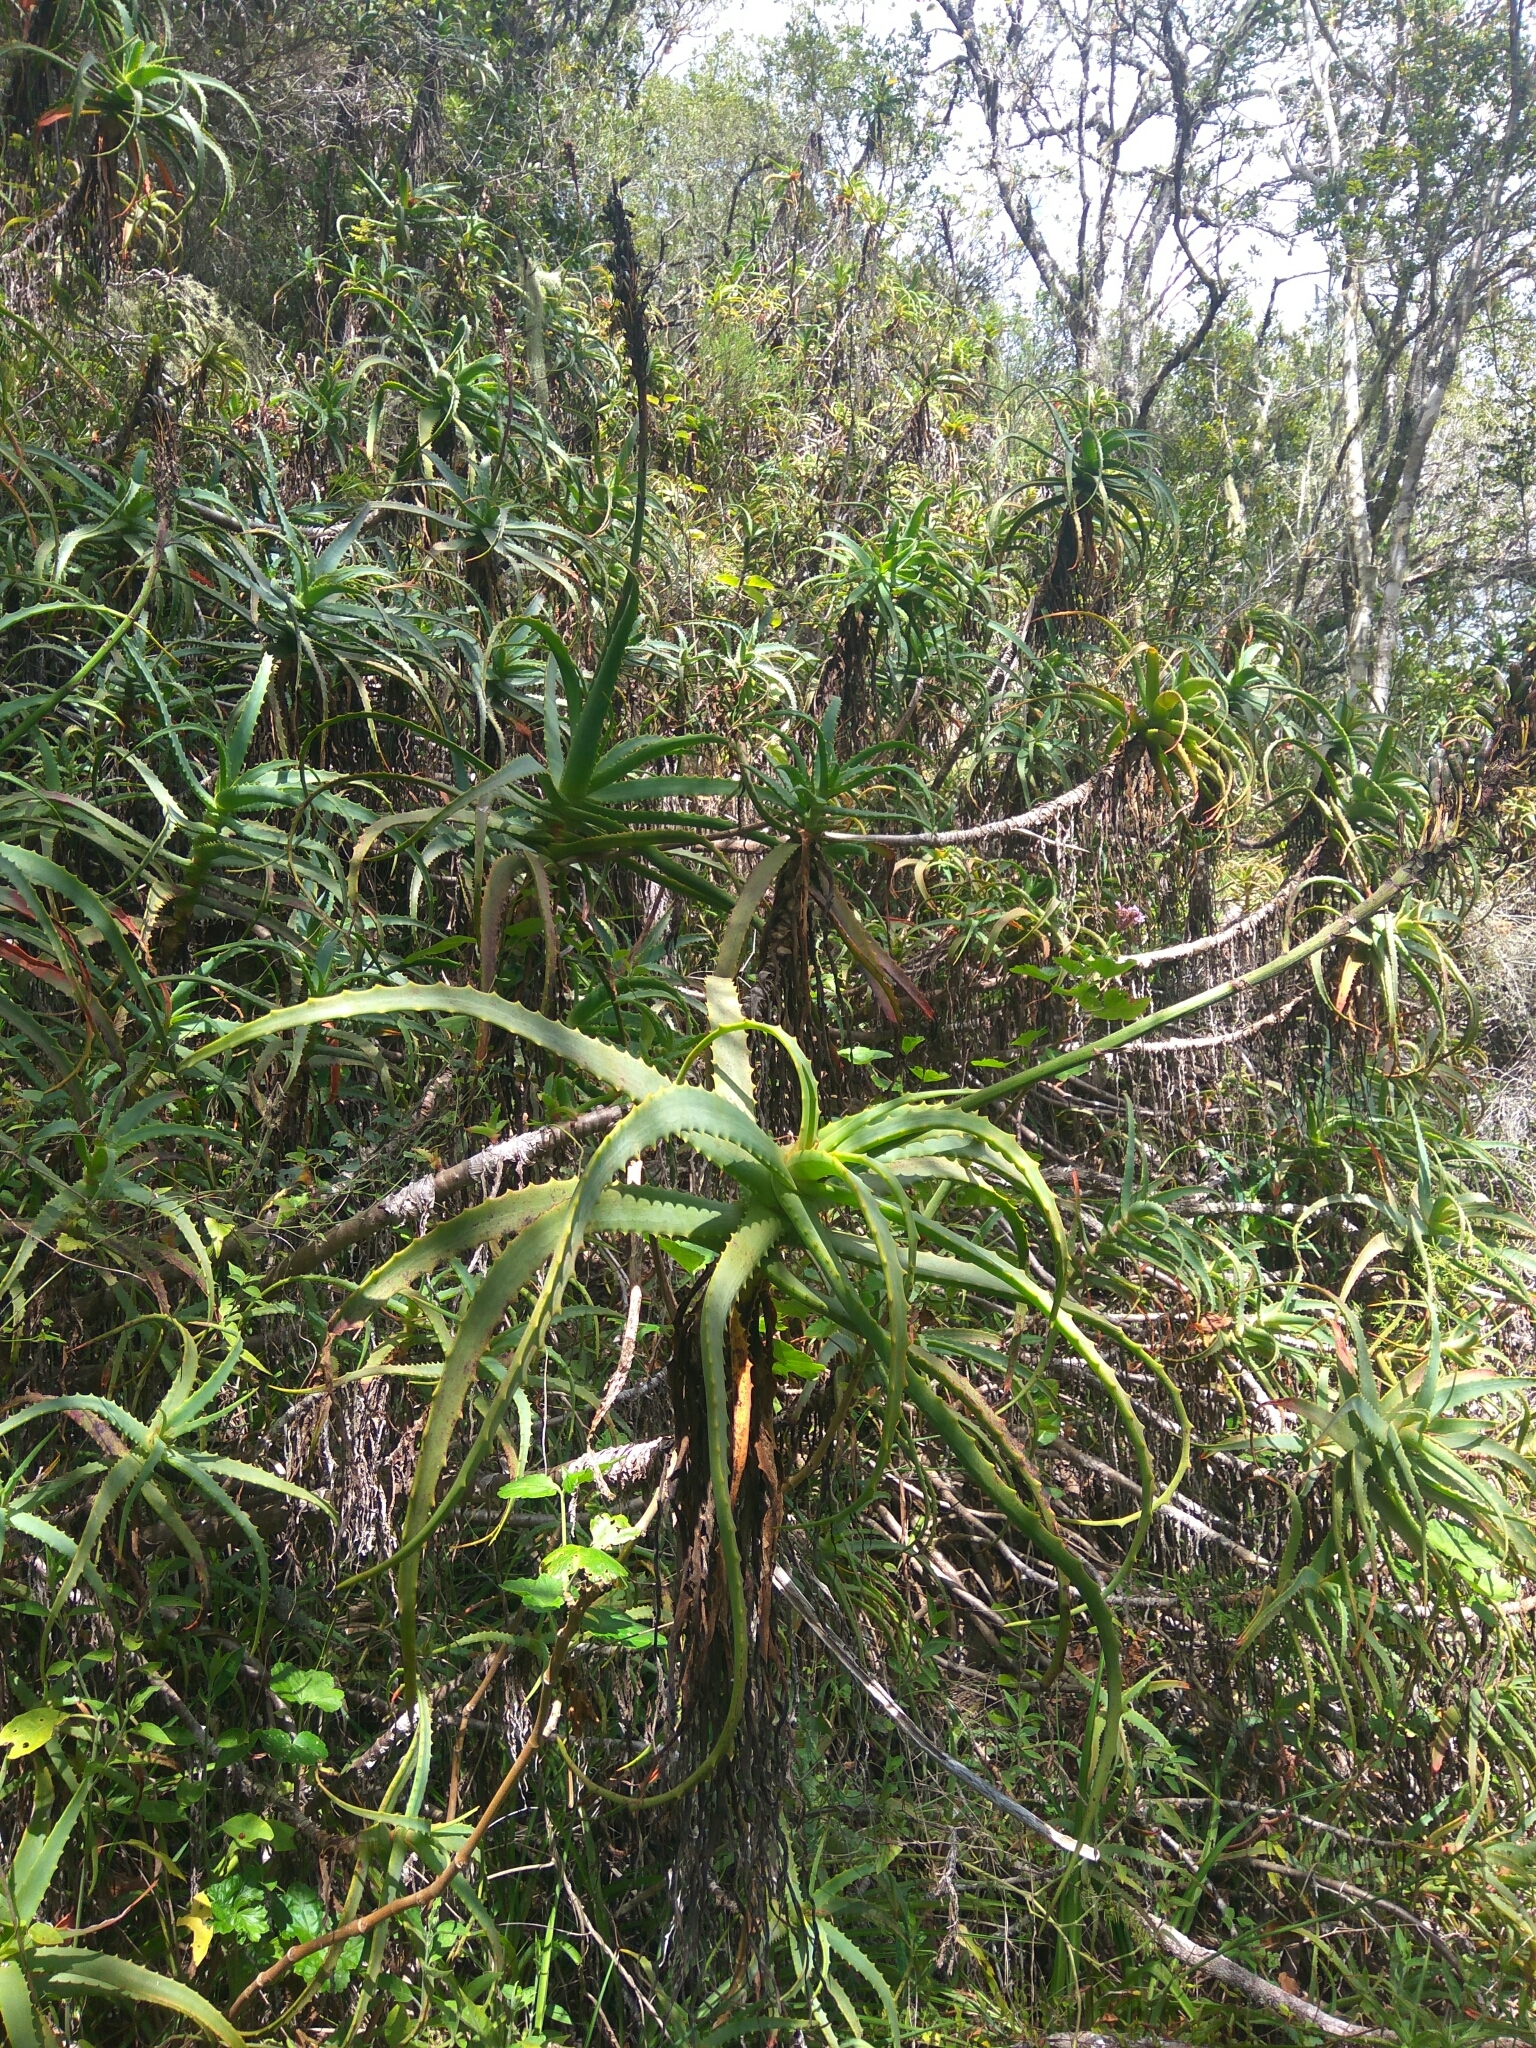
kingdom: Plantae
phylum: Tracheophyta
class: Liliopsida
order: Asparagales
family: Asphodelaceae
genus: Aloe
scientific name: Aloe arborescens
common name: Candelabra aloe
